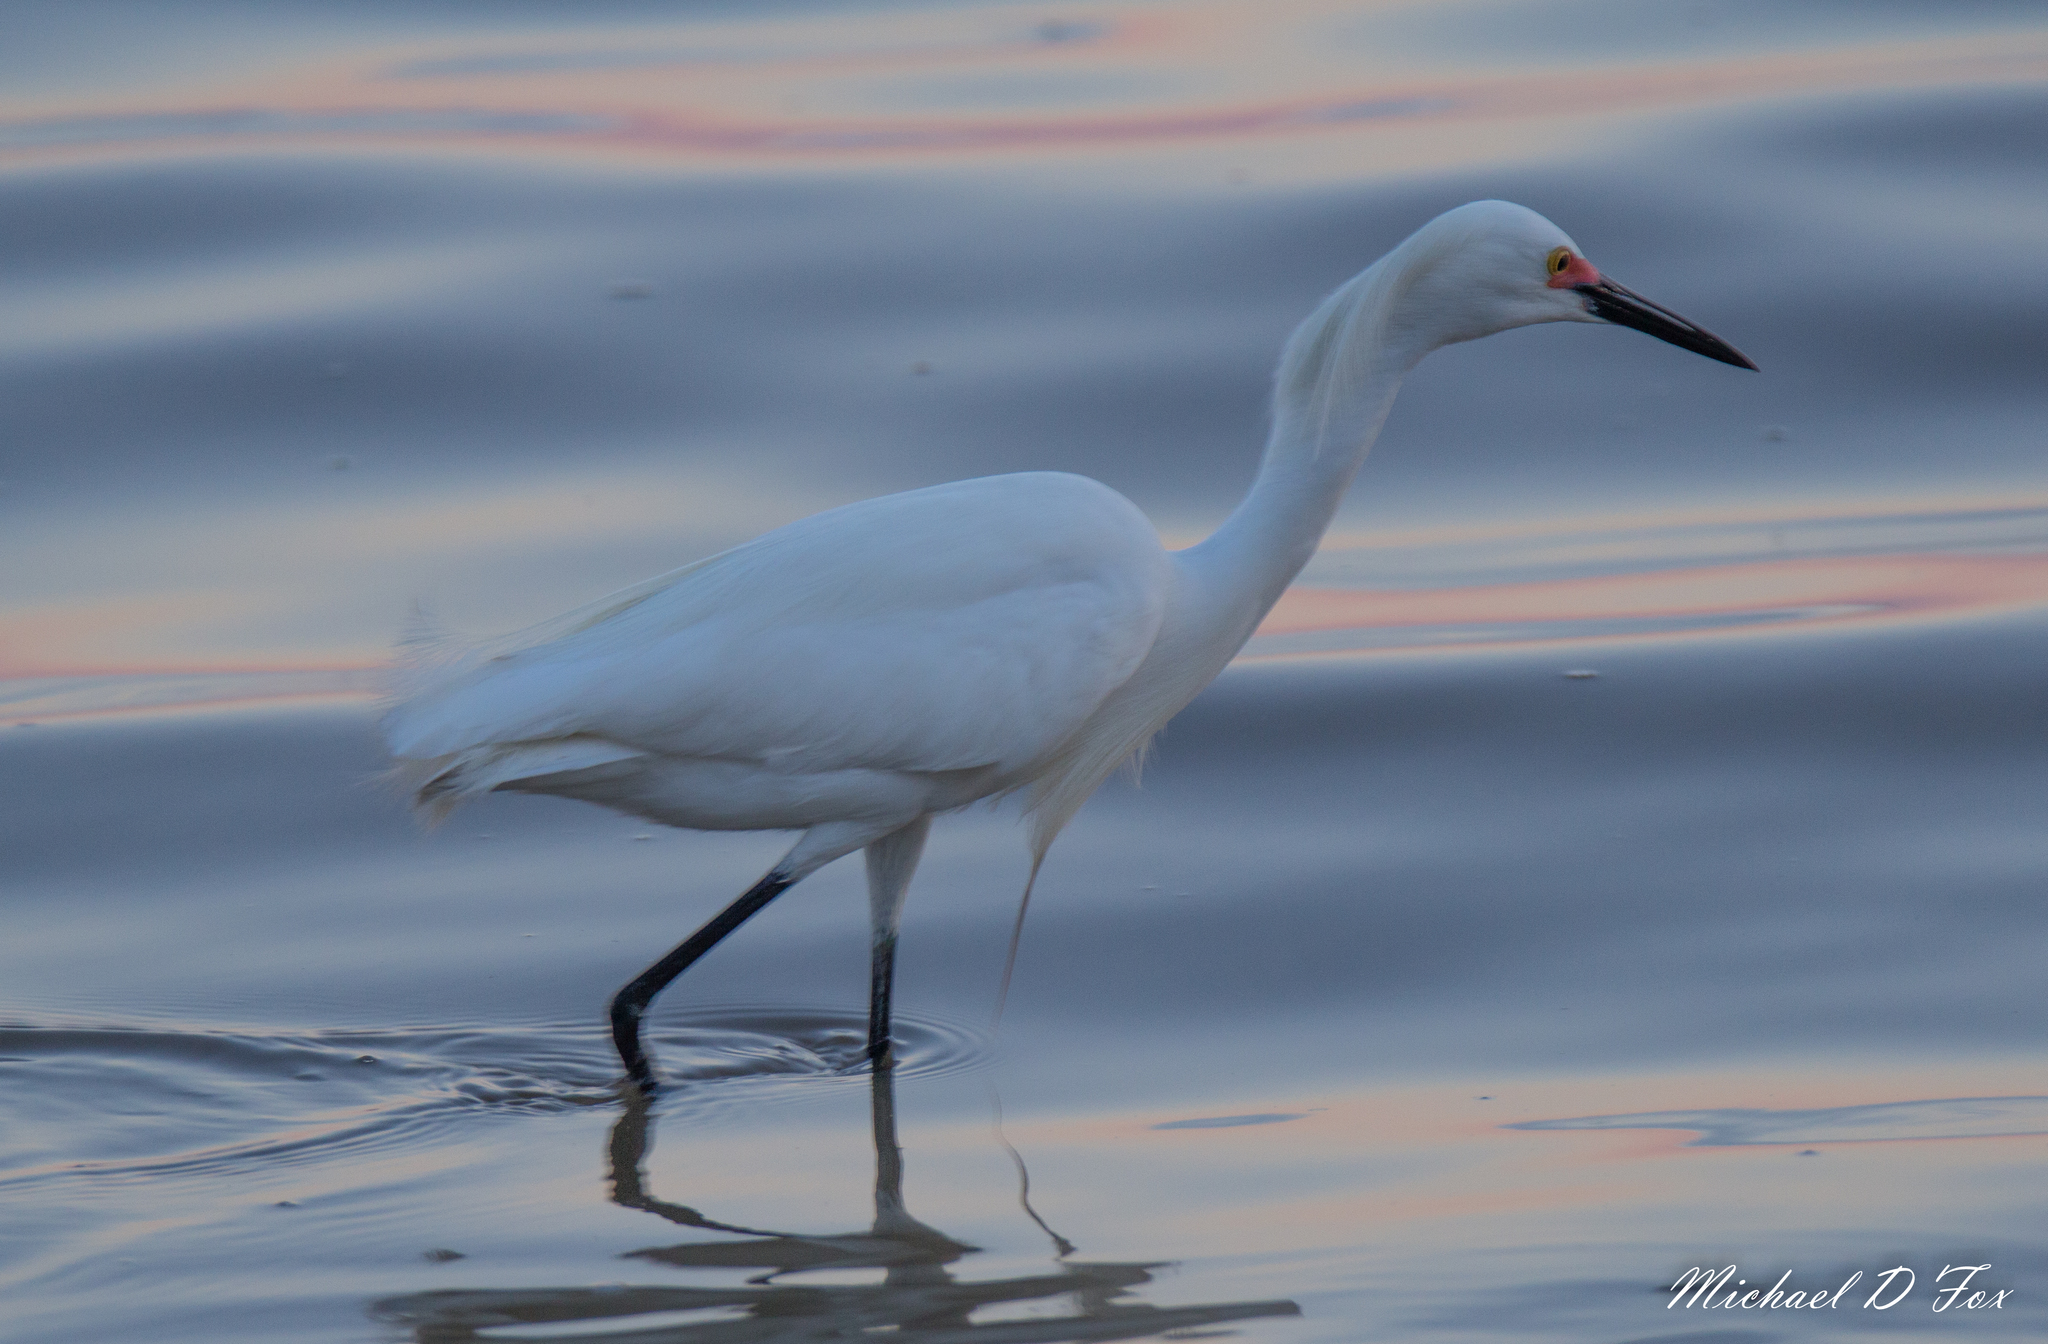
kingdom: Animalia
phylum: Chordata
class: Aves
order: Pelecaniformes
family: Ardeidae
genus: Egretta
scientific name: Egretta thula
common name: Snowy egret
